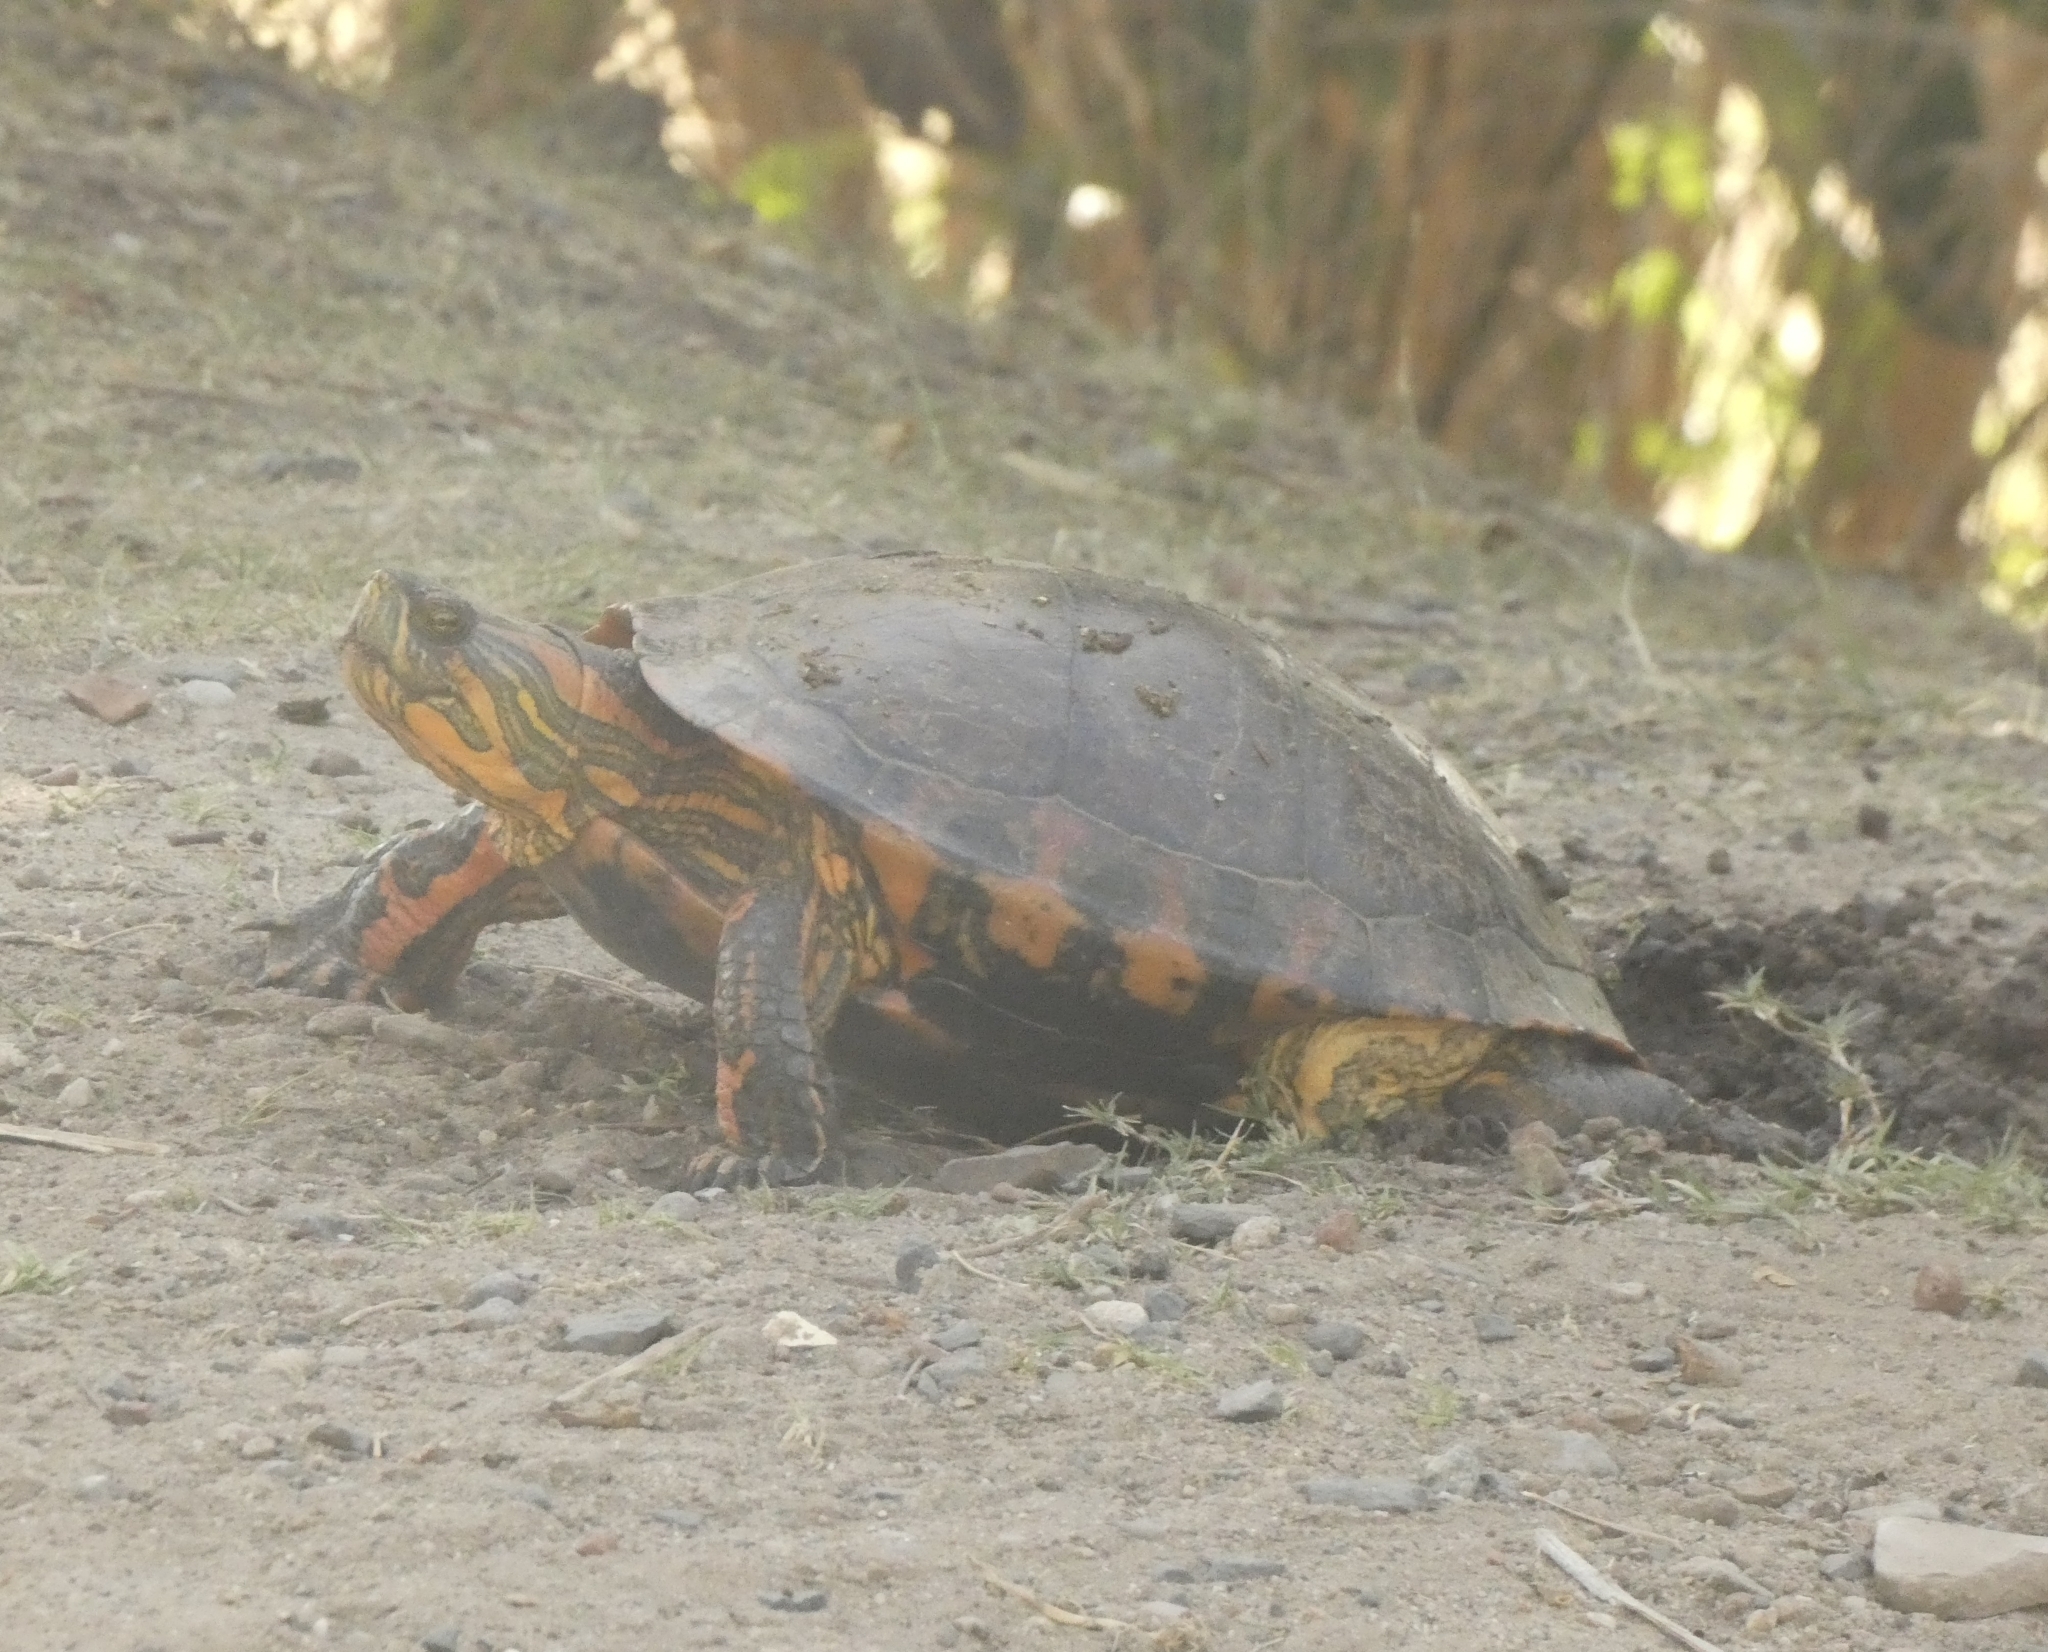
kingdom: Animalia
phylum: Chordata
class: Testudines
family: Emydidae
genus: Trachemys
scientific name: Trachemys dorbigni
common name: Black-bellied slider
